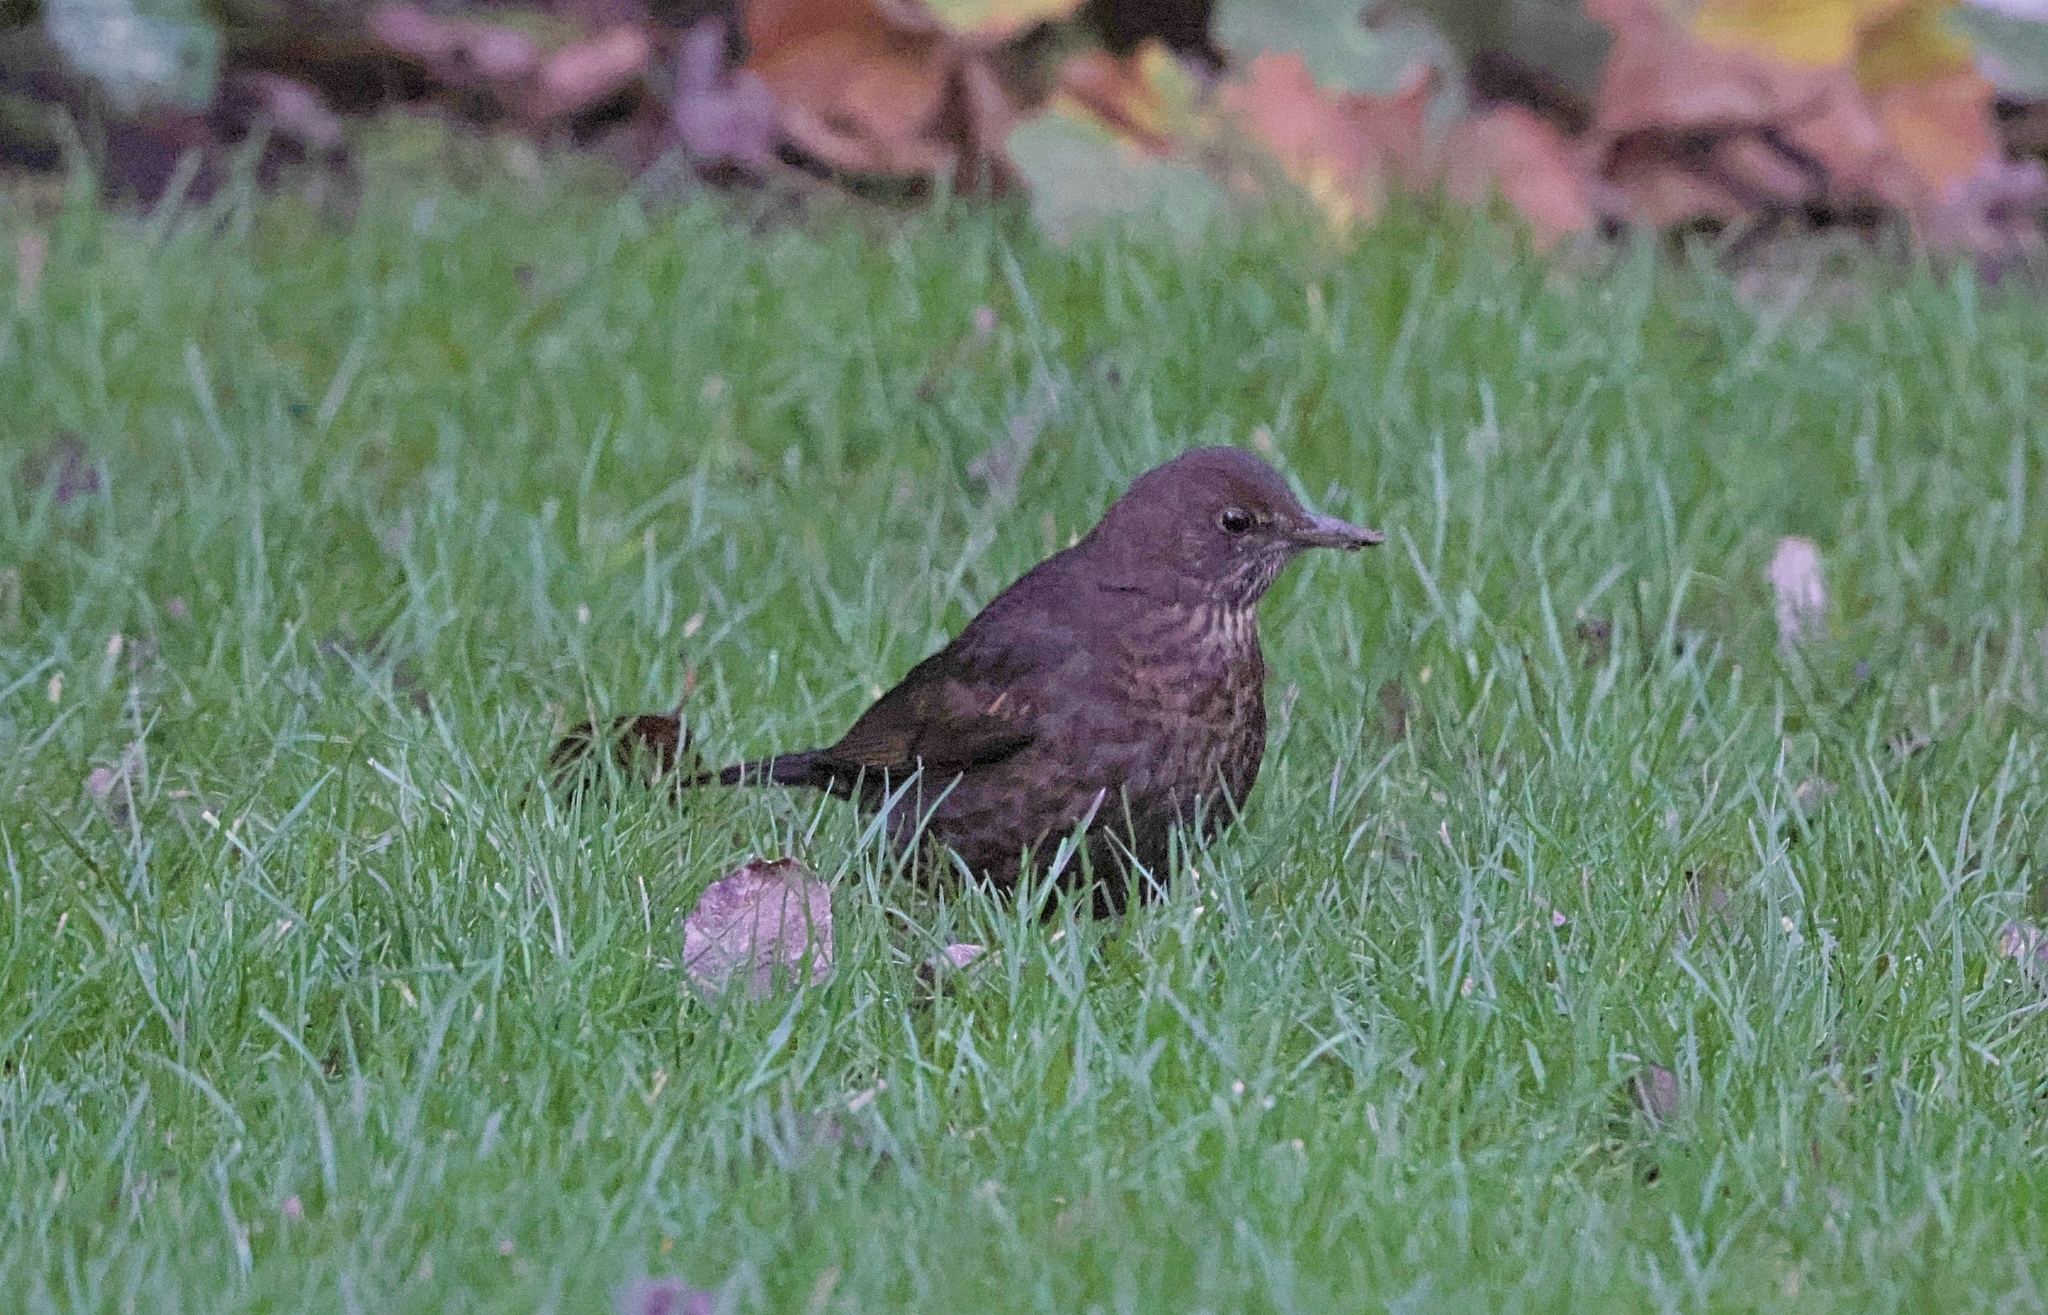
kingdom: Animalia
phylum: Chordata
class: Aves
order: Passeriformes
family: Turdidae
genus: Turdus
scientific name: Turdus merula
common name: Common blackbird
